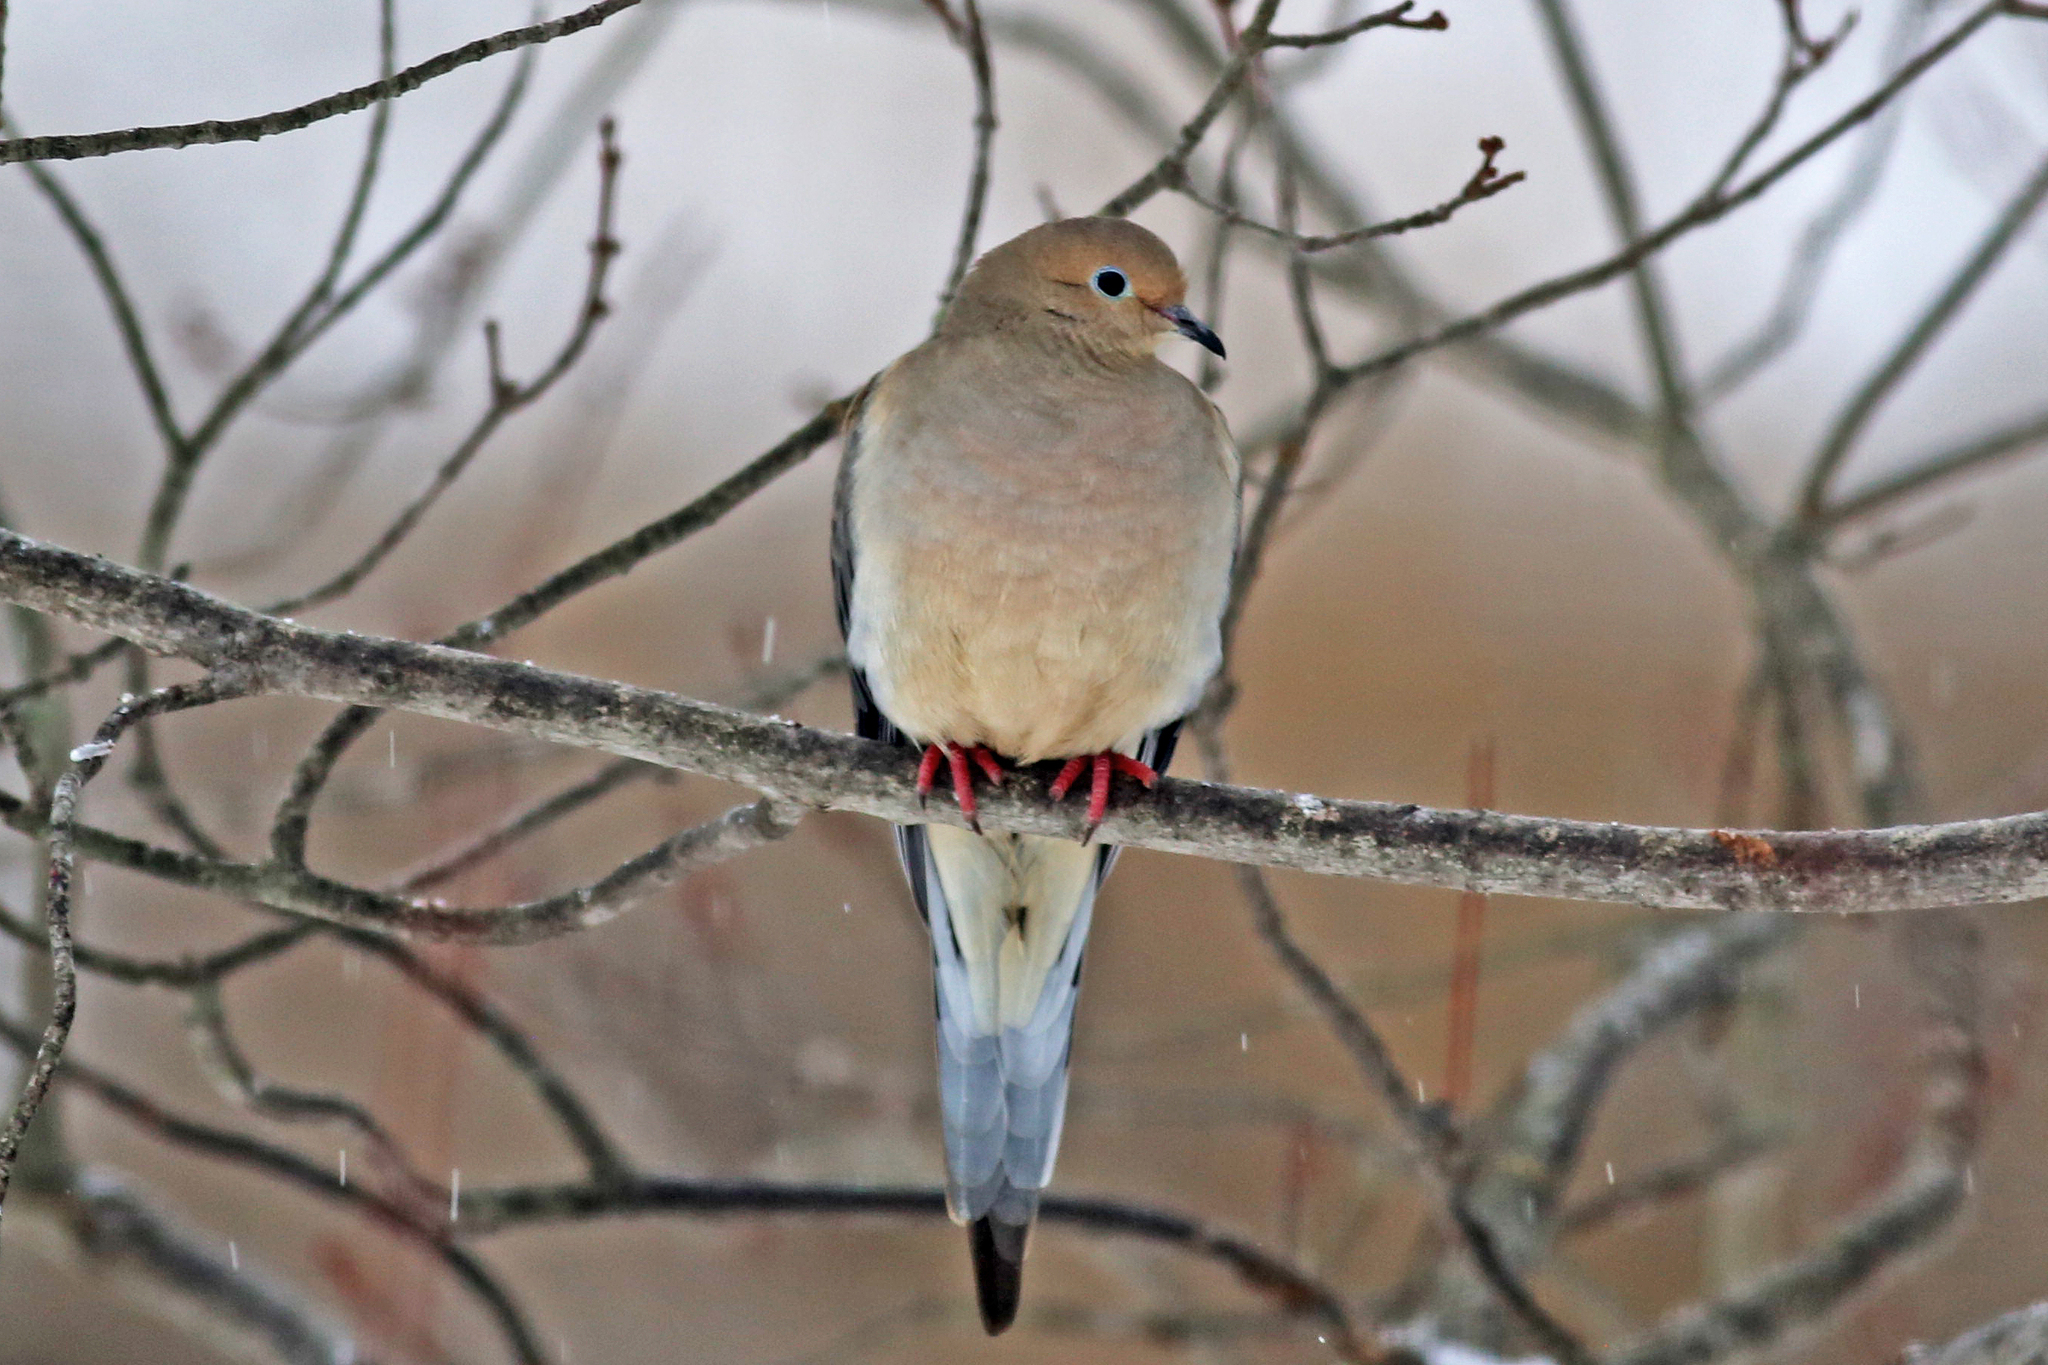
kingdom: Animalia
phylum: Chordata
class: Aves
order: Columbiformes
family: Columbidae
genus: Zenaida
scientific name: Zenaida macroura
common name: Mourning dove
